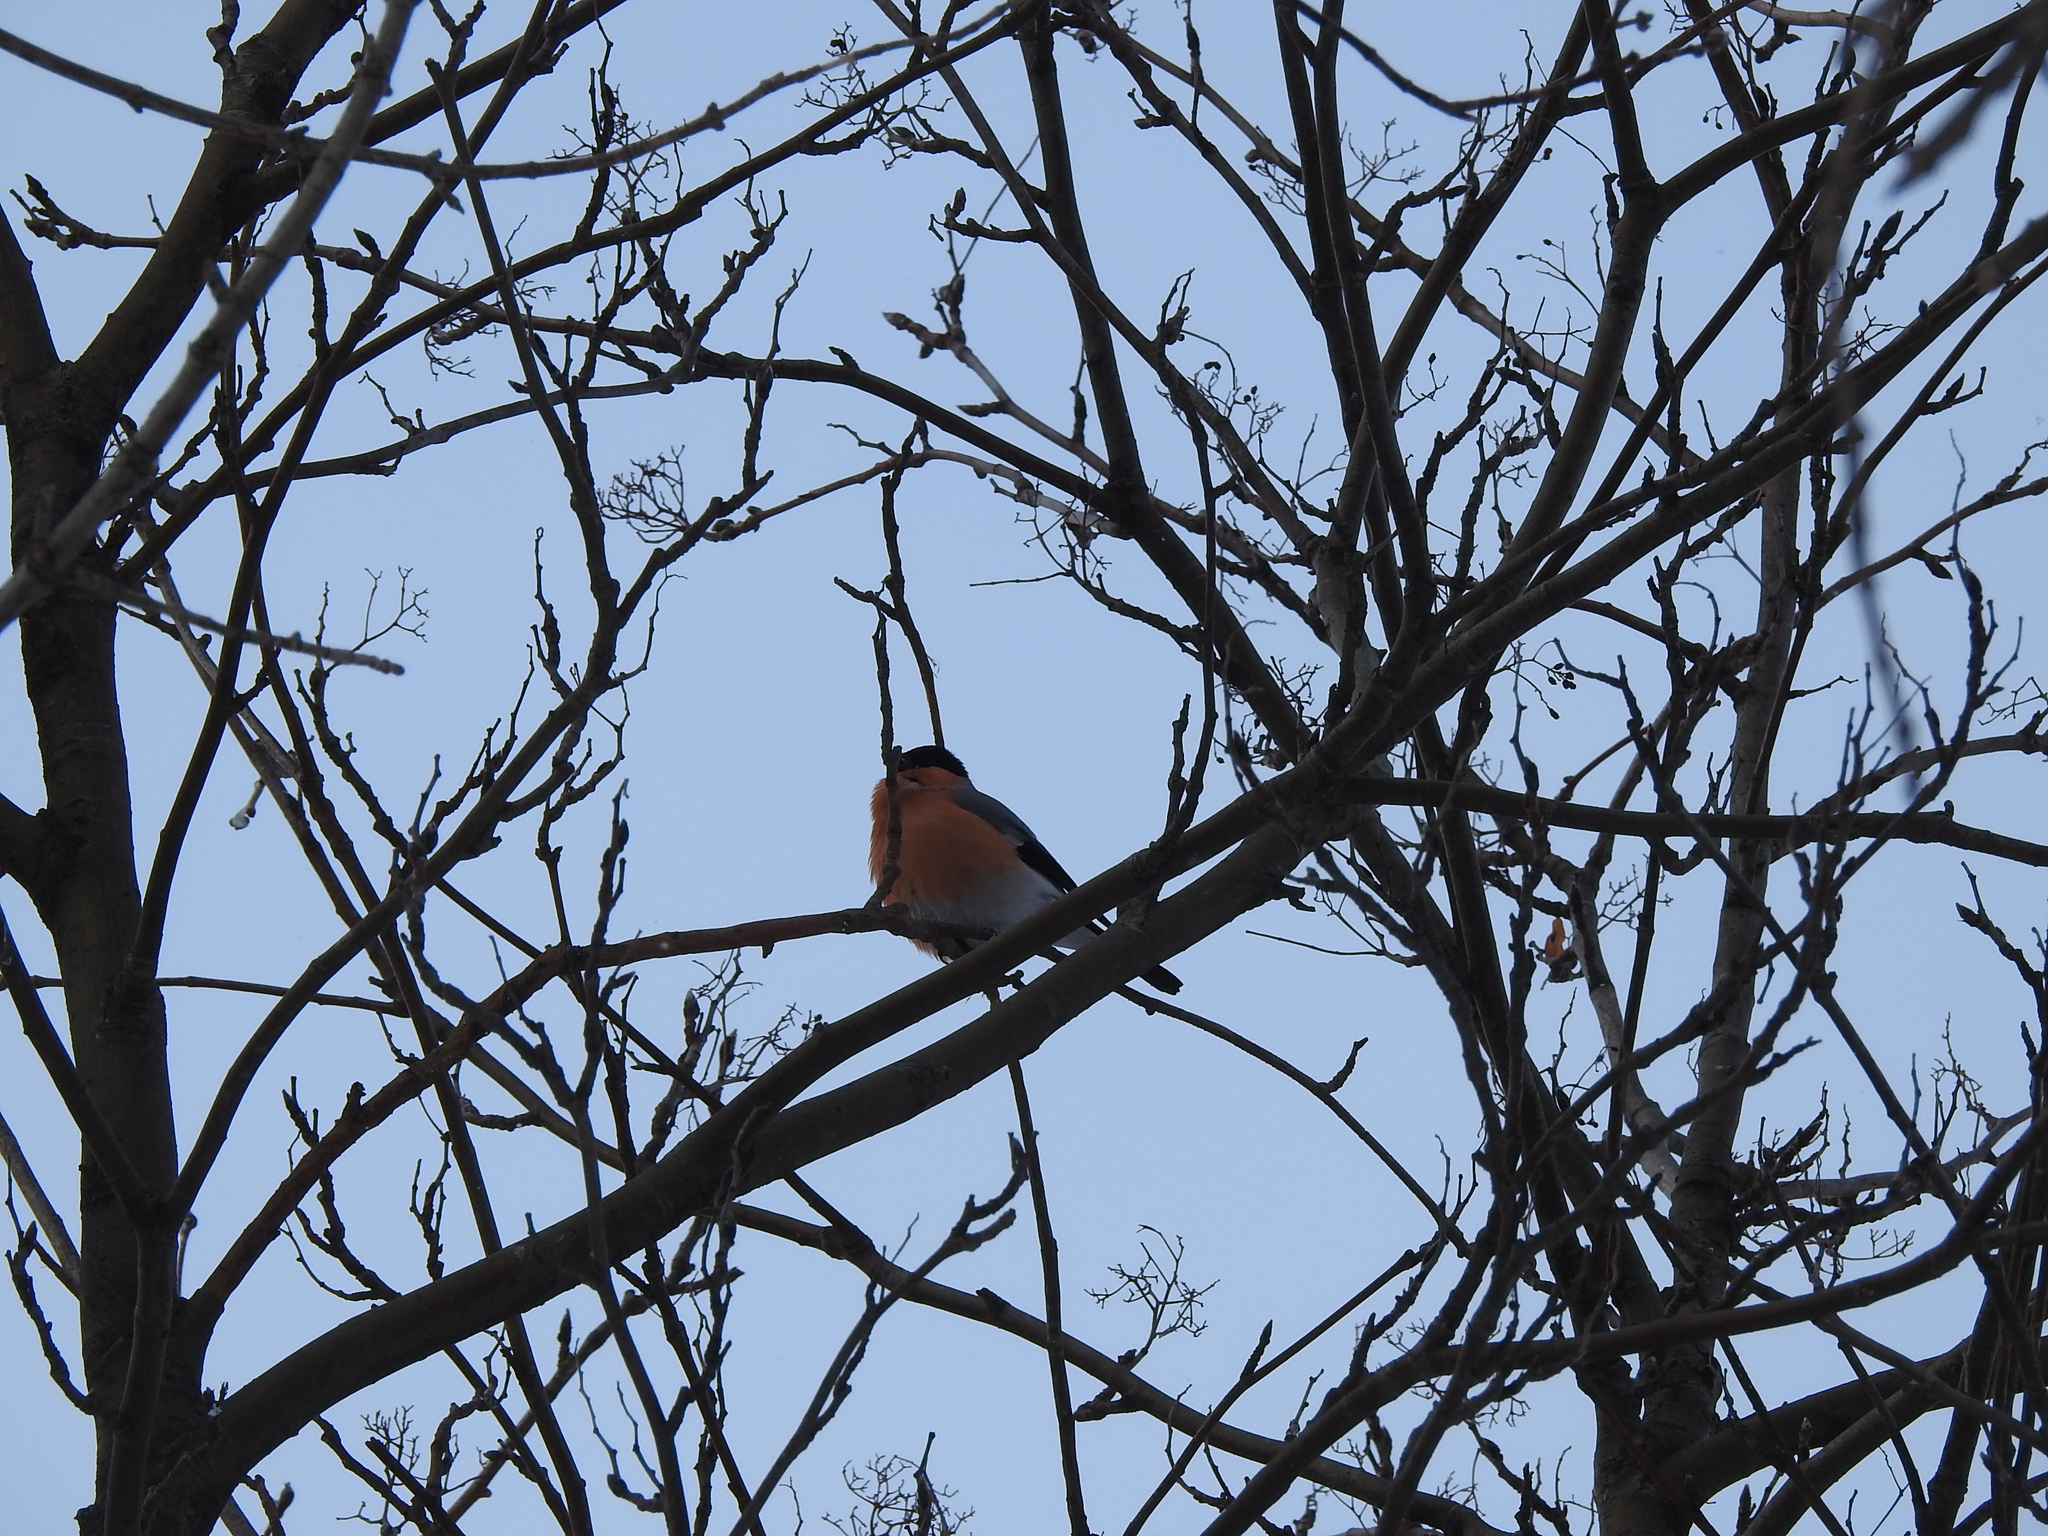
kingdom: Animalia
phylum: Chordata
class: Aves
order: Passeriformes
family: Fringillidae
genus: Pyrrhula
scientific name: Pyrrhula pyrrhula
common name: Eurasian bullfinch
